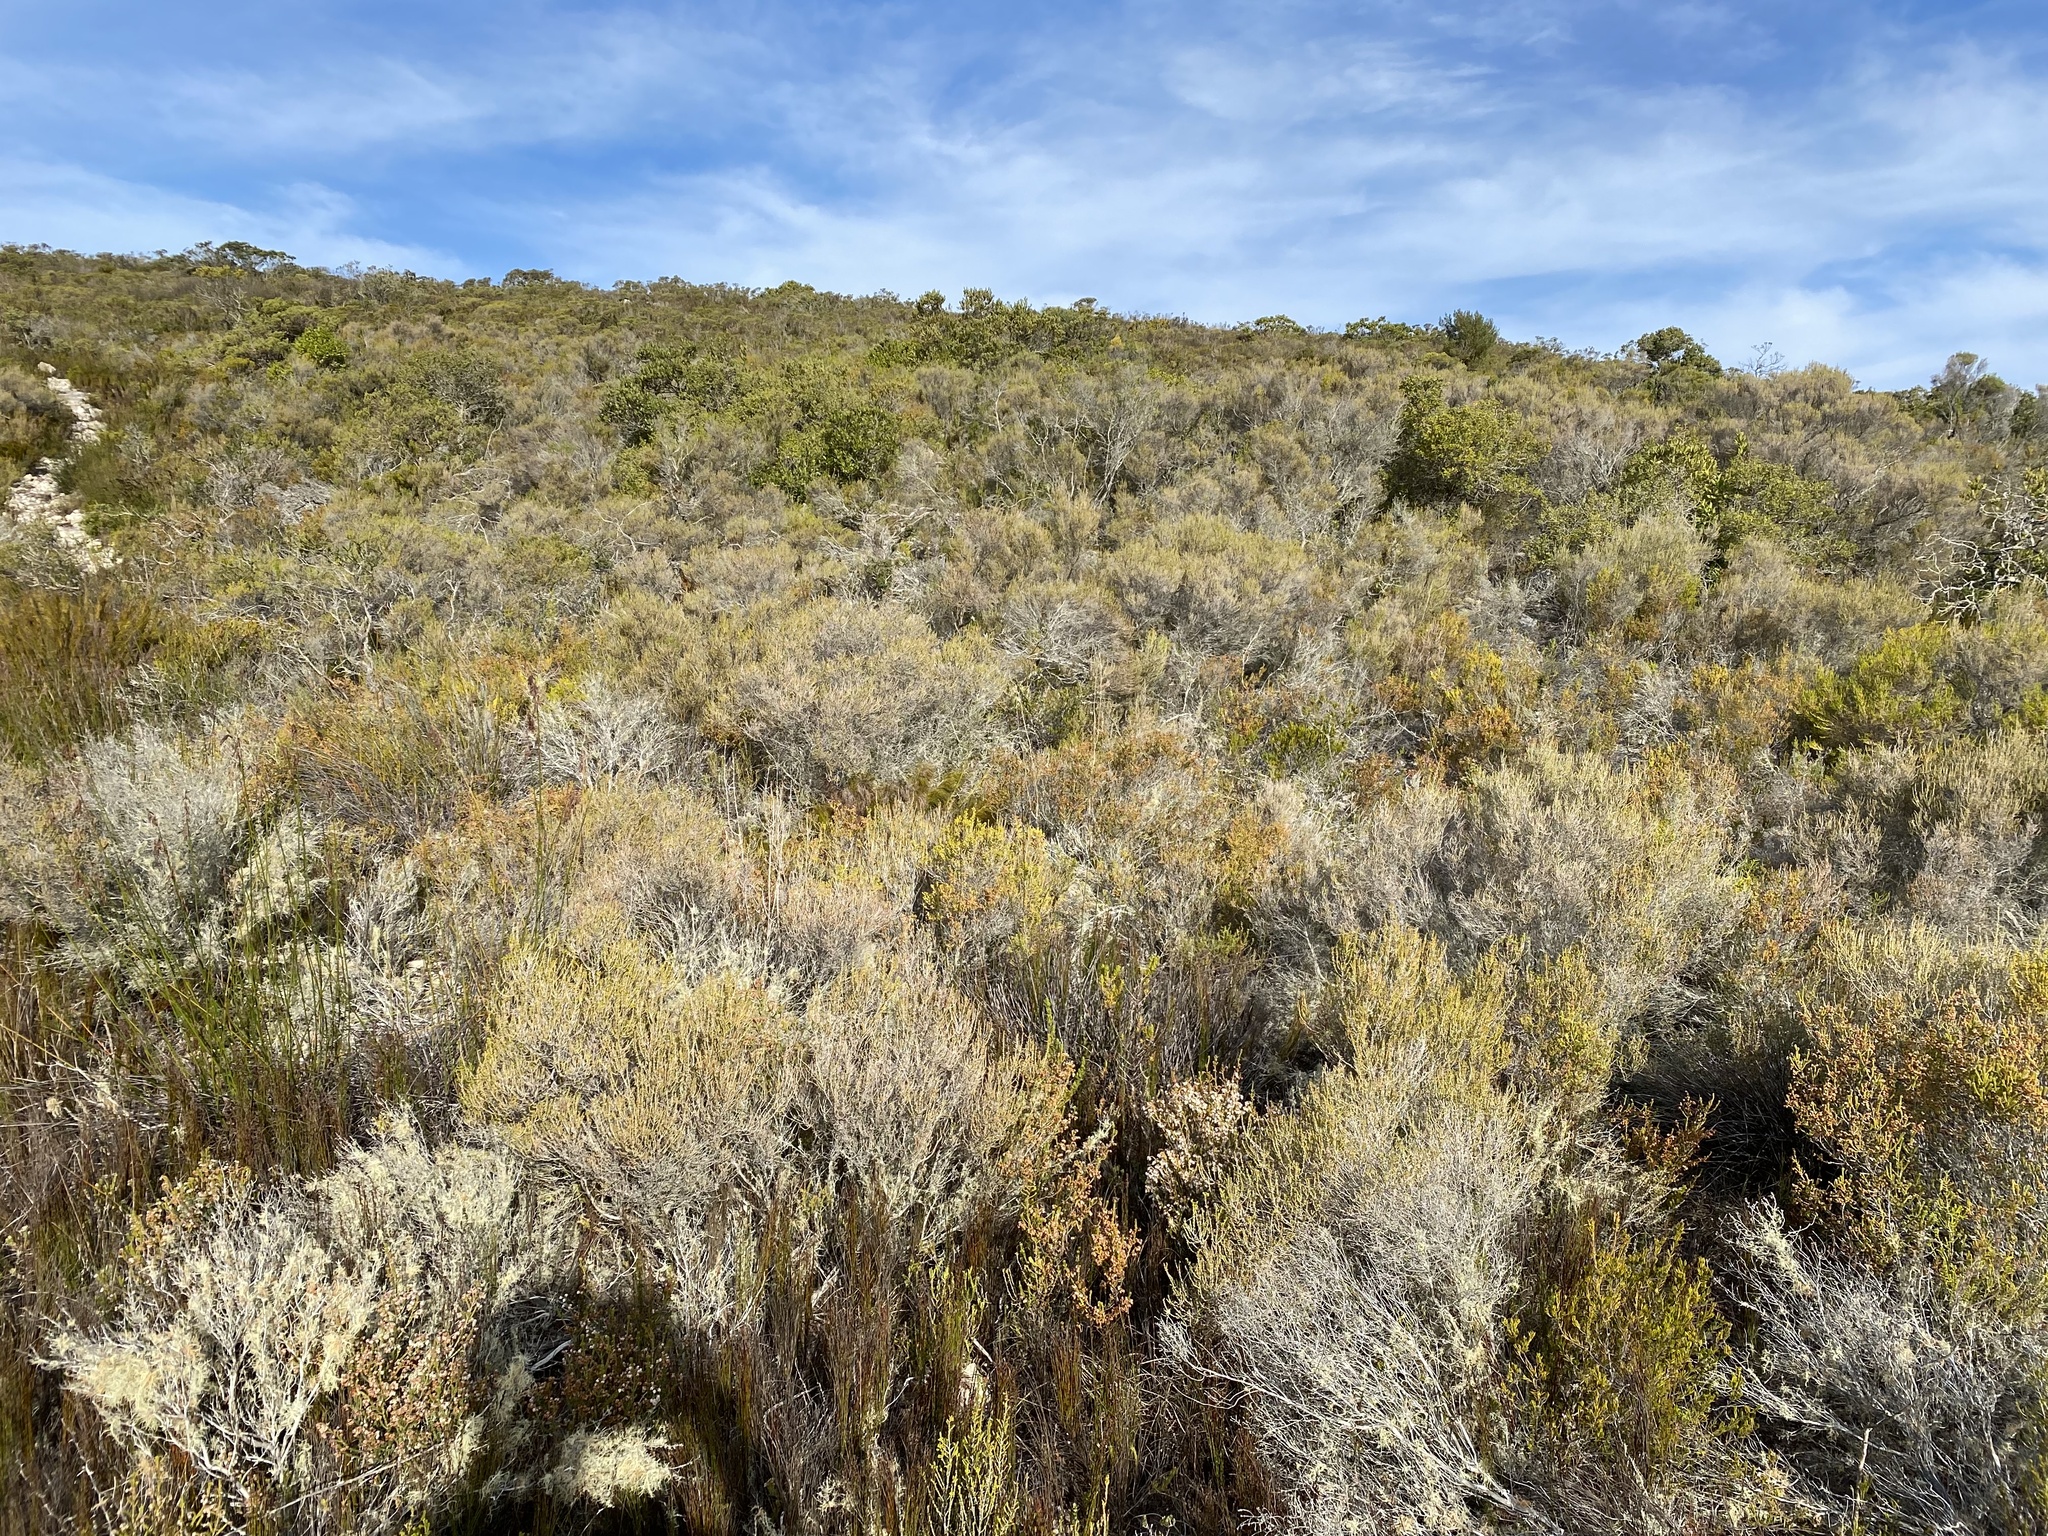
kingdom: Plantae
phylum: Tracheophyta
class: Magnoliopsida
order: Ericales
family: Ericaceae
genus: Erica
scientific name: Erica calcicola
